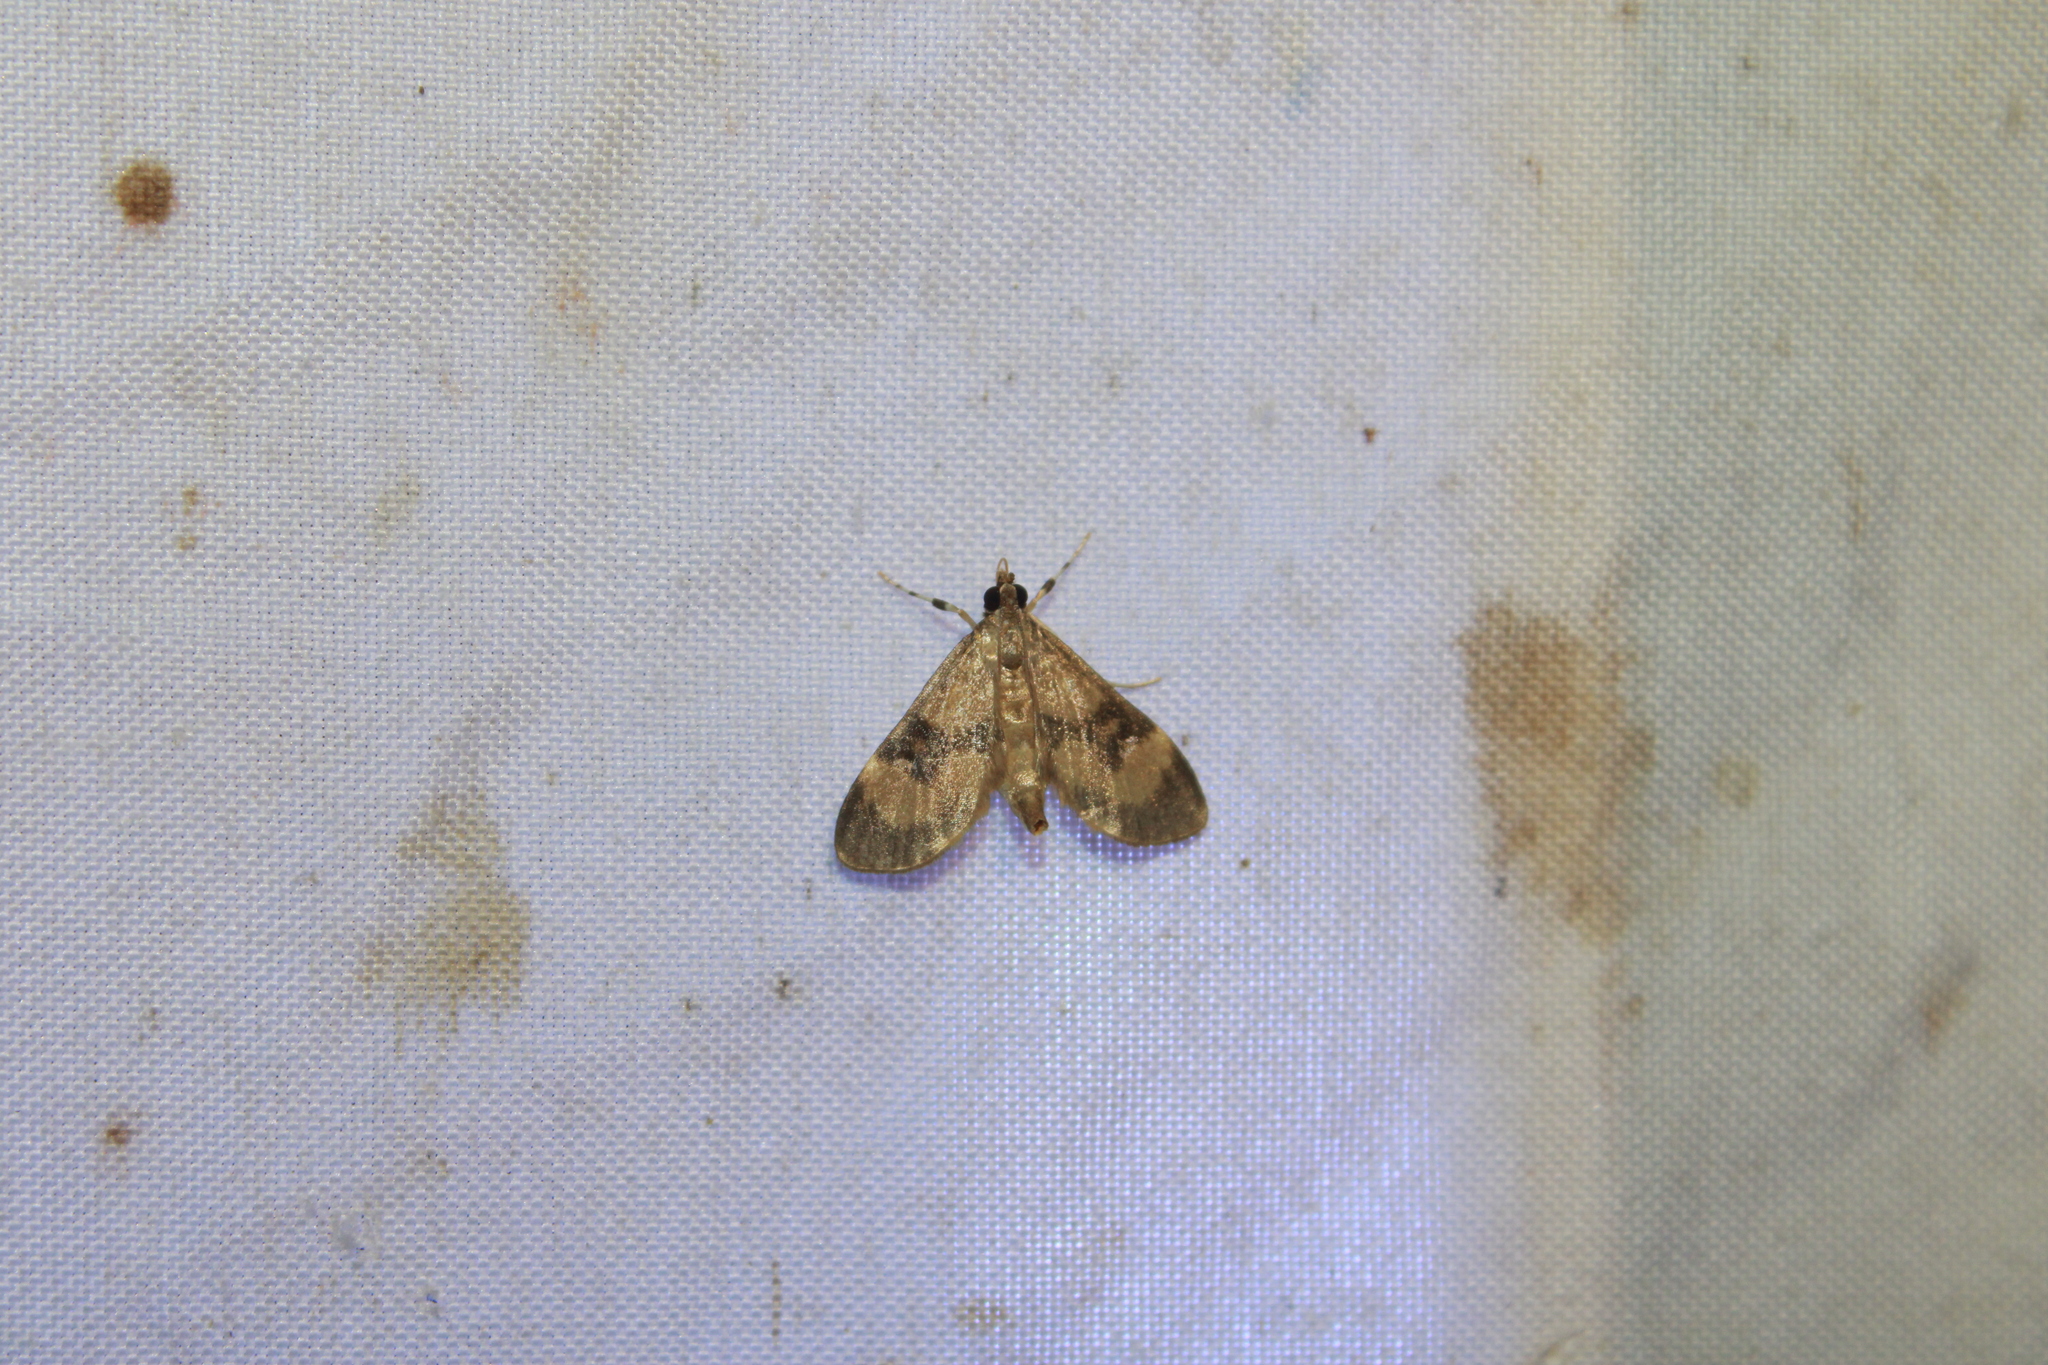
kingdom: Animalia
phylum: Arthropoda
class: Insecta
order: Lepidoptera
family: Crambidae
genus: Lygropia
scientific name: Lygropia fusalis
